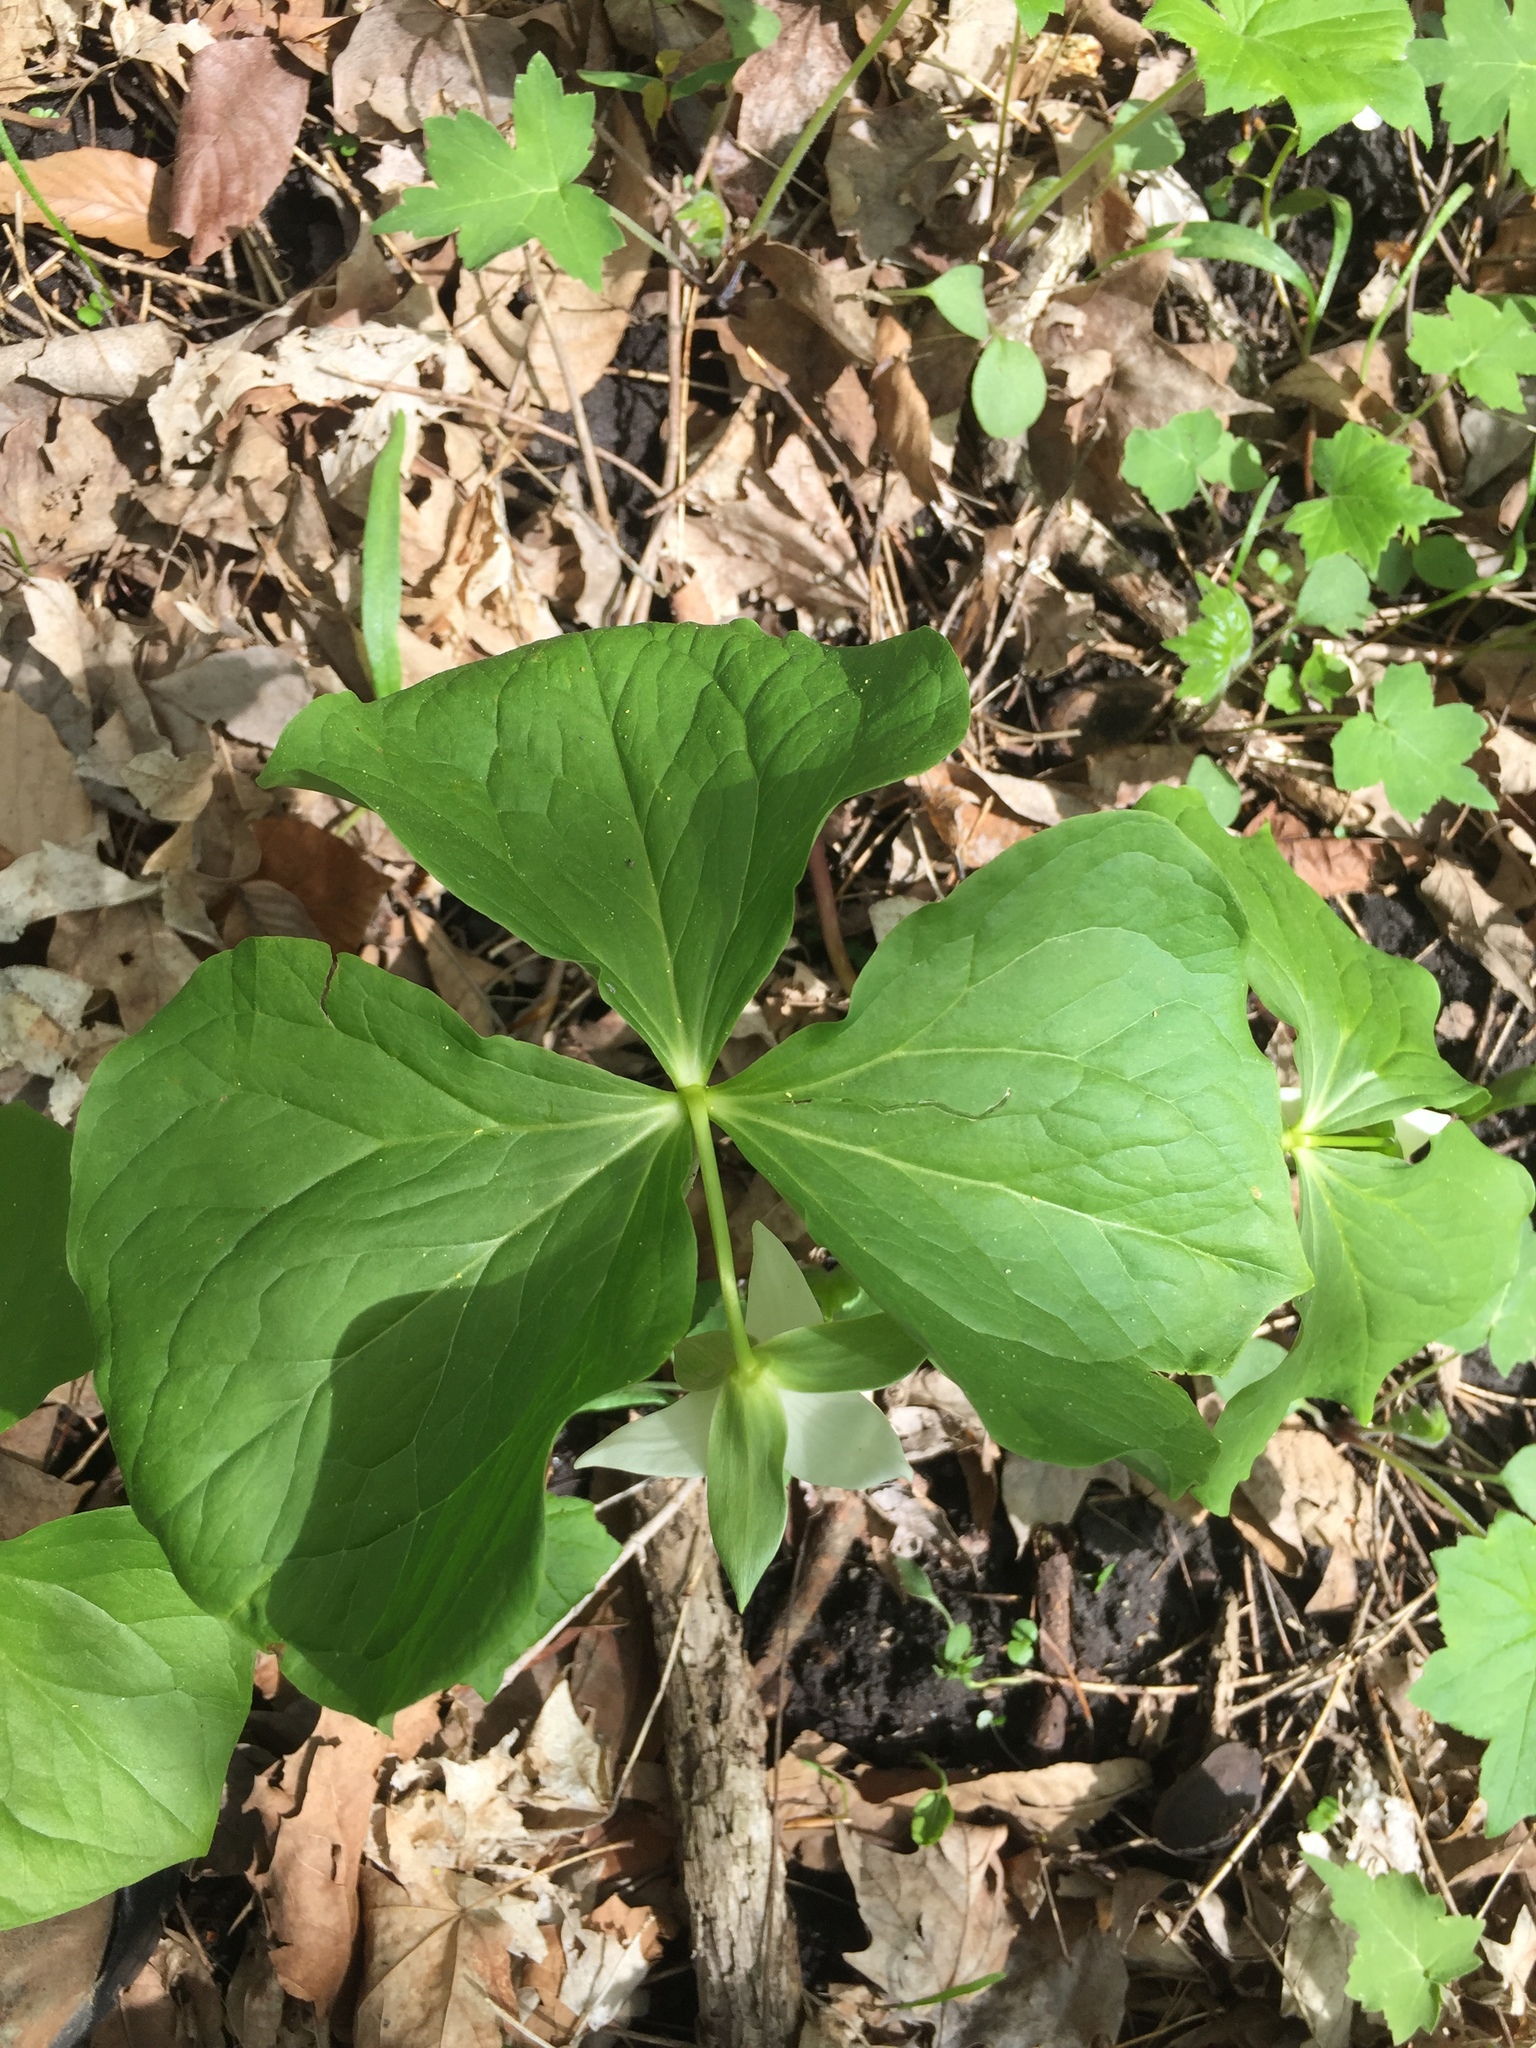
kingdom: Plantae
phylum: Tracheophyta
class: Liliopsida
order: Liliales
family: Melanthiaceae
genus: Trillium
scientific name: Trillium flexipes
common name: Drooping trillium
